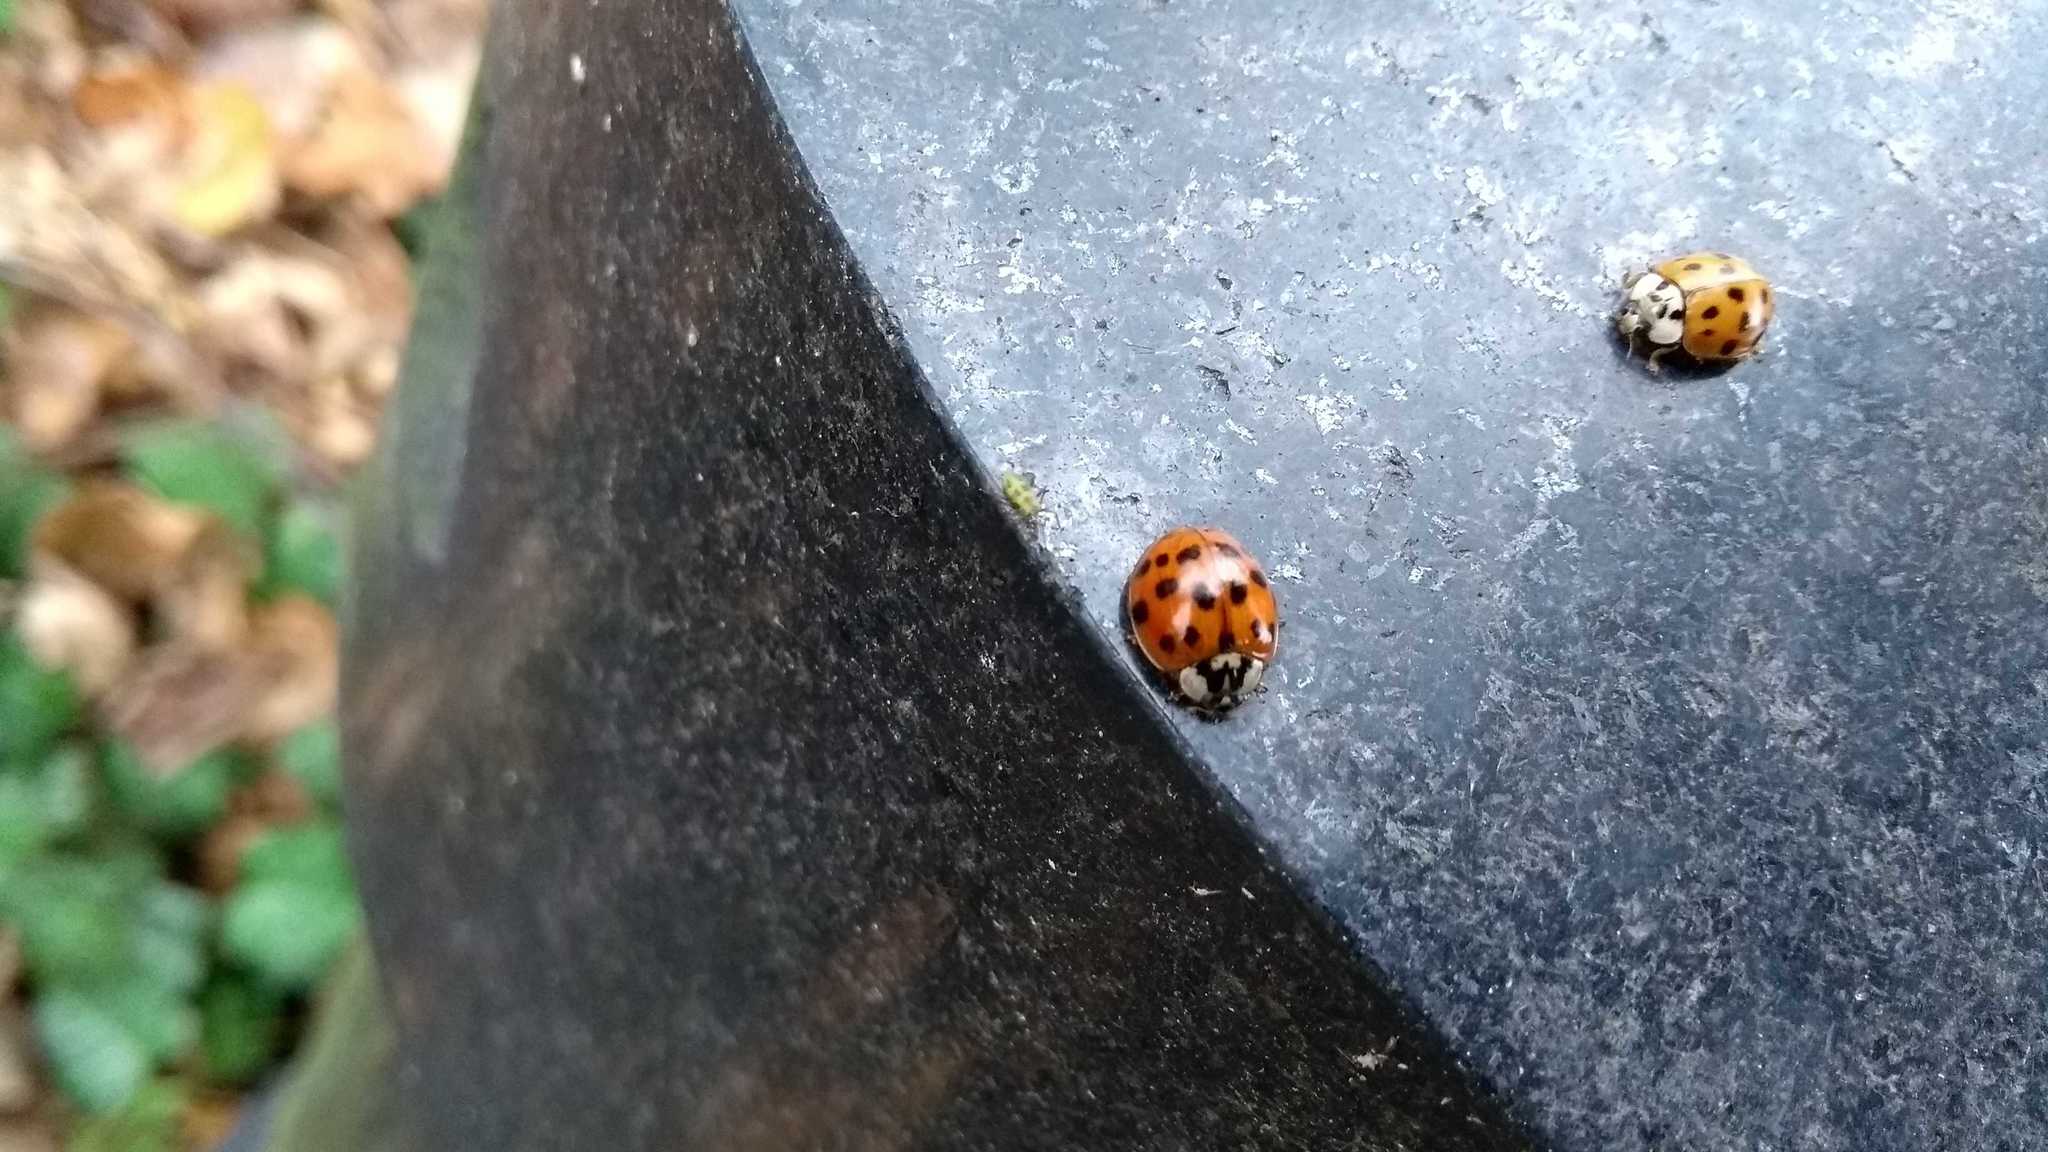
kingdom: Animalia
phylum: Arthropoda
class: Insecta
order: Coleoptera
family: Coccinellidae
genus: Harmonia
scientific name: Harmonia axyridis
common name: Harlequin ladybird
